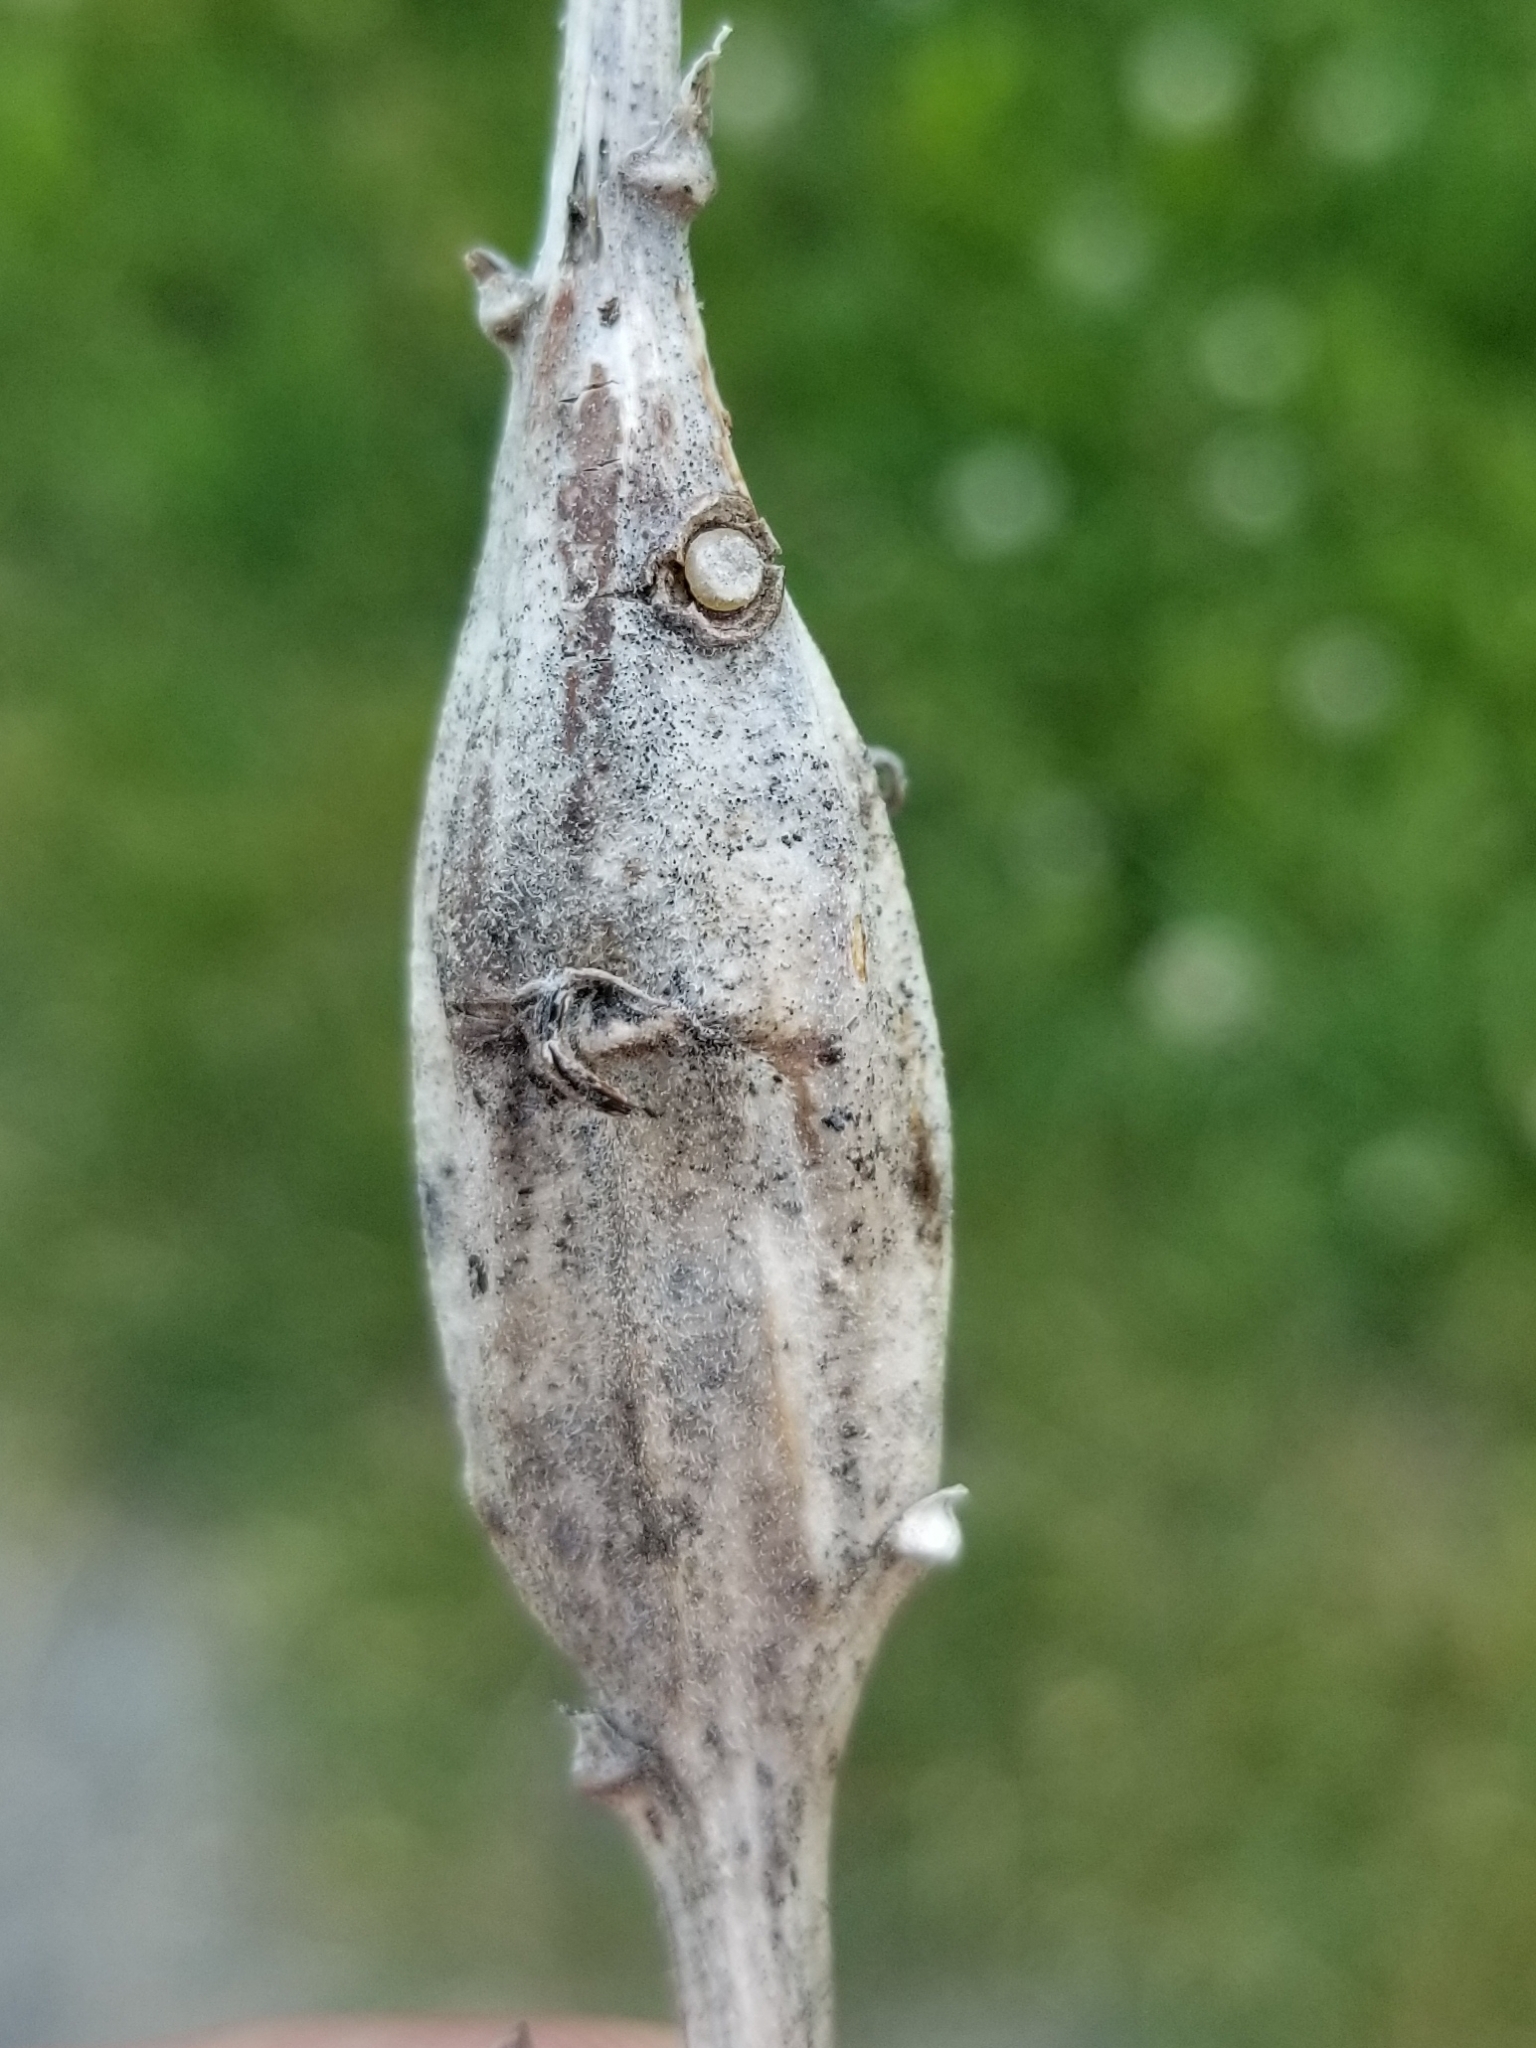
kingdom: Animalia
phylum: Arthropoda
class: Insecta
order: Lepidoptera
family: Gelechiidae
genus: Gnorimoschema
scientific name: Gnorimoschema gallaesolidaginis
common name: Goldenrod elliptical-gall moth
